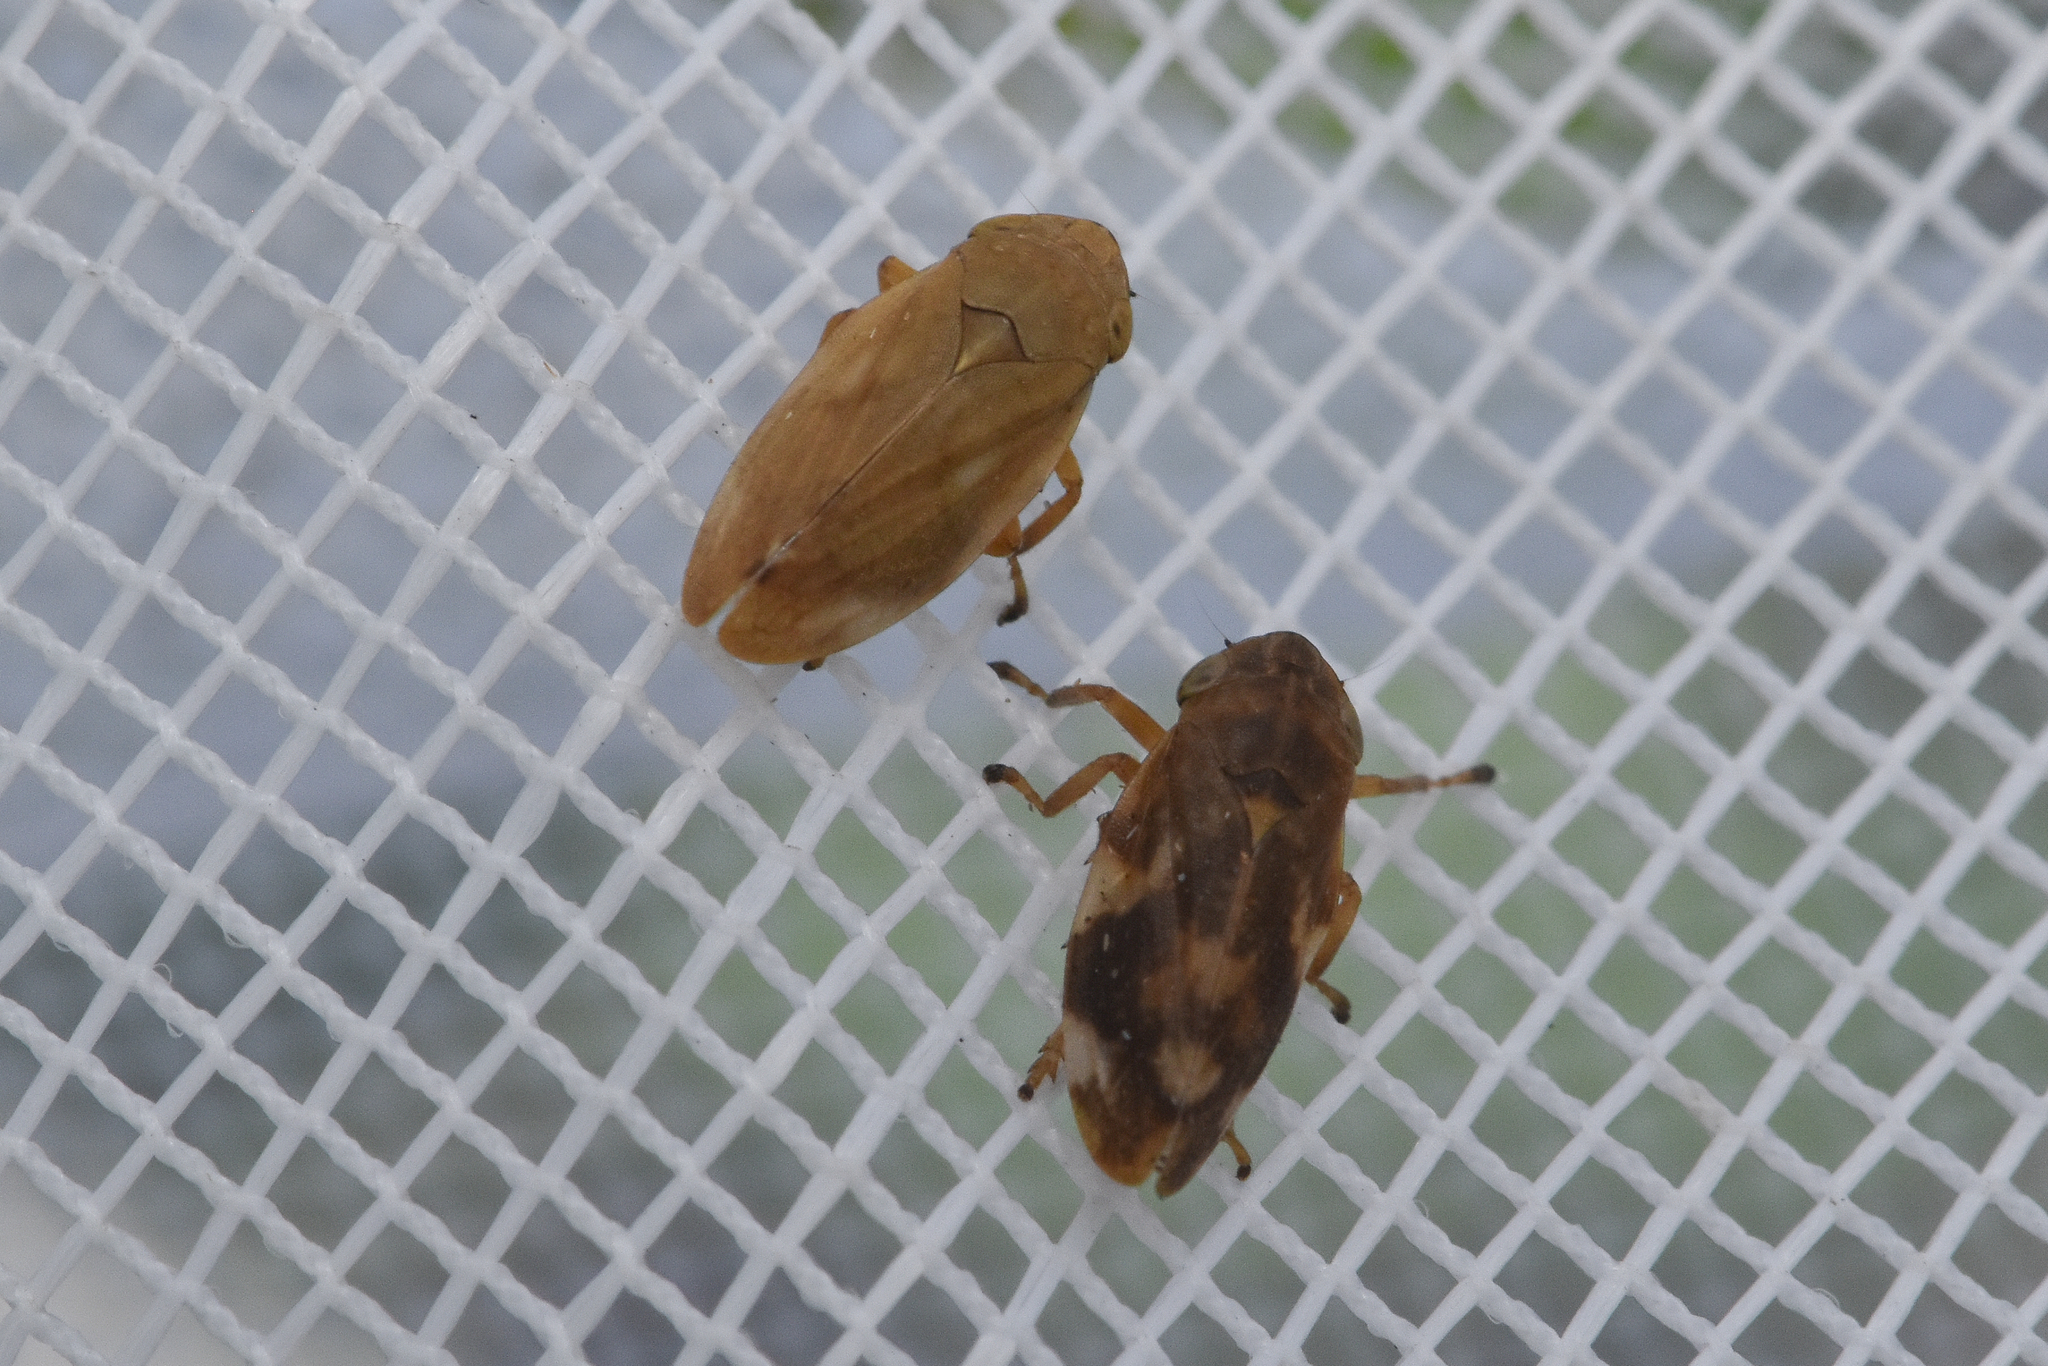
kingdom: Animalia
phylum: Arthropoda
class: Insecta
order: Hemiptera
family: Aphrophoridae
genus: Philaenus
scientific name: Philaenus spumarius
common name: Meadow spittlebug
